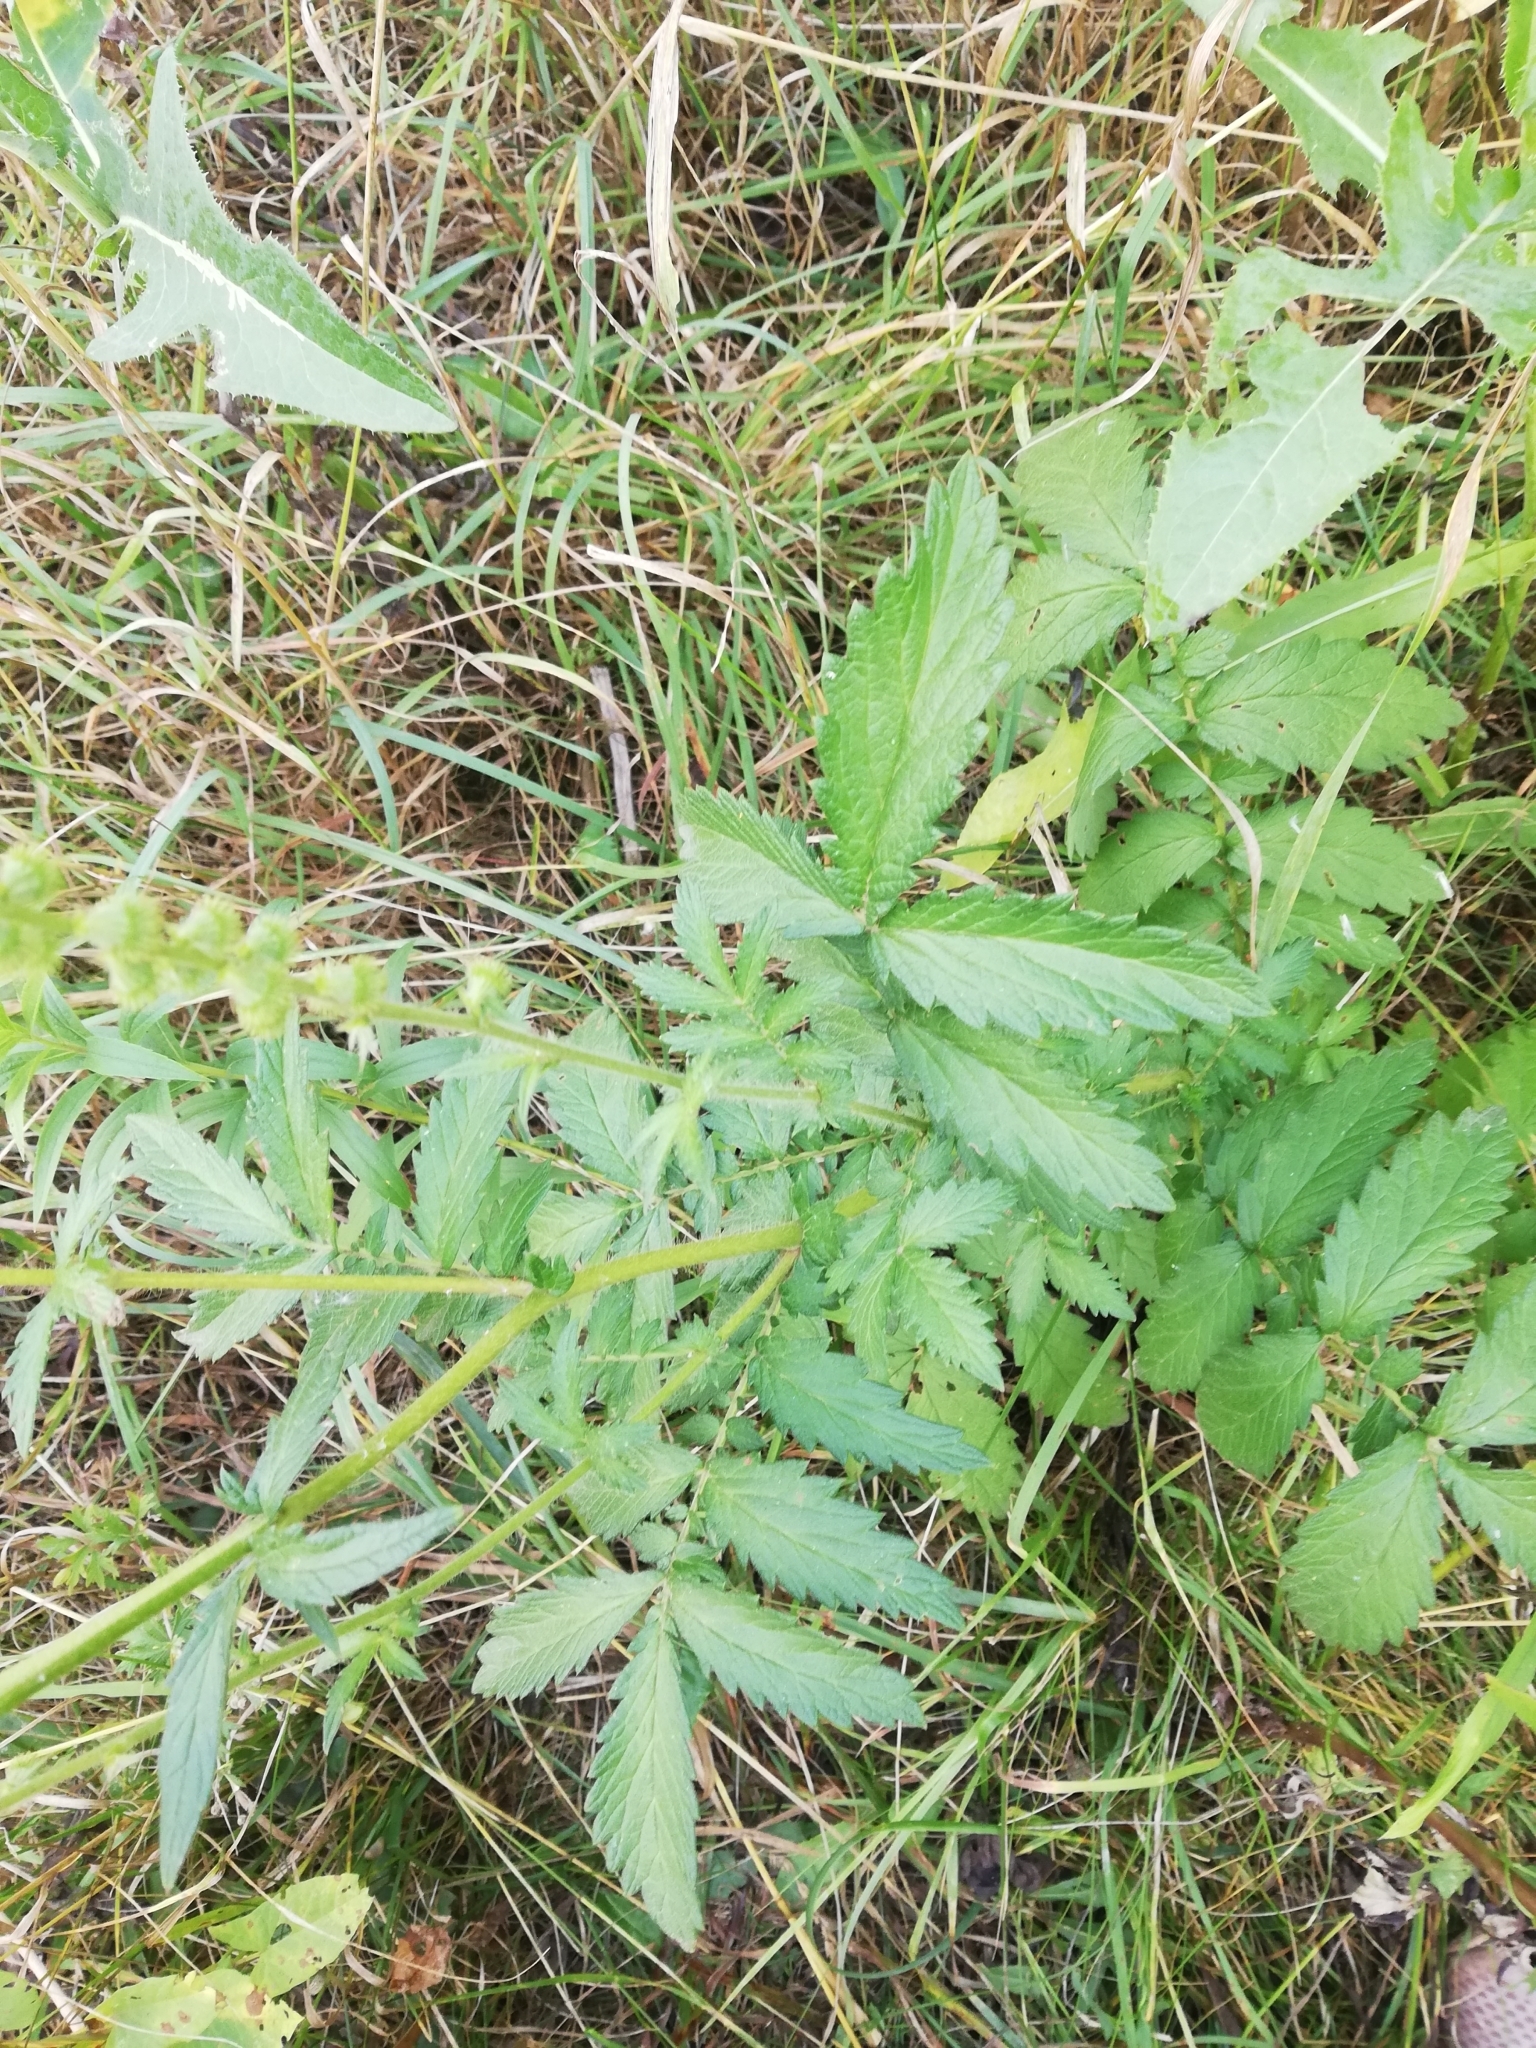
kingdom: Plantae
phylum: Tracheophyta
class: Magnoliopsida
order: Rosales
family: Rosaceae
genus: Agrimonia
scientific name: Agrimonia eupatoria
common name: Agrimony
